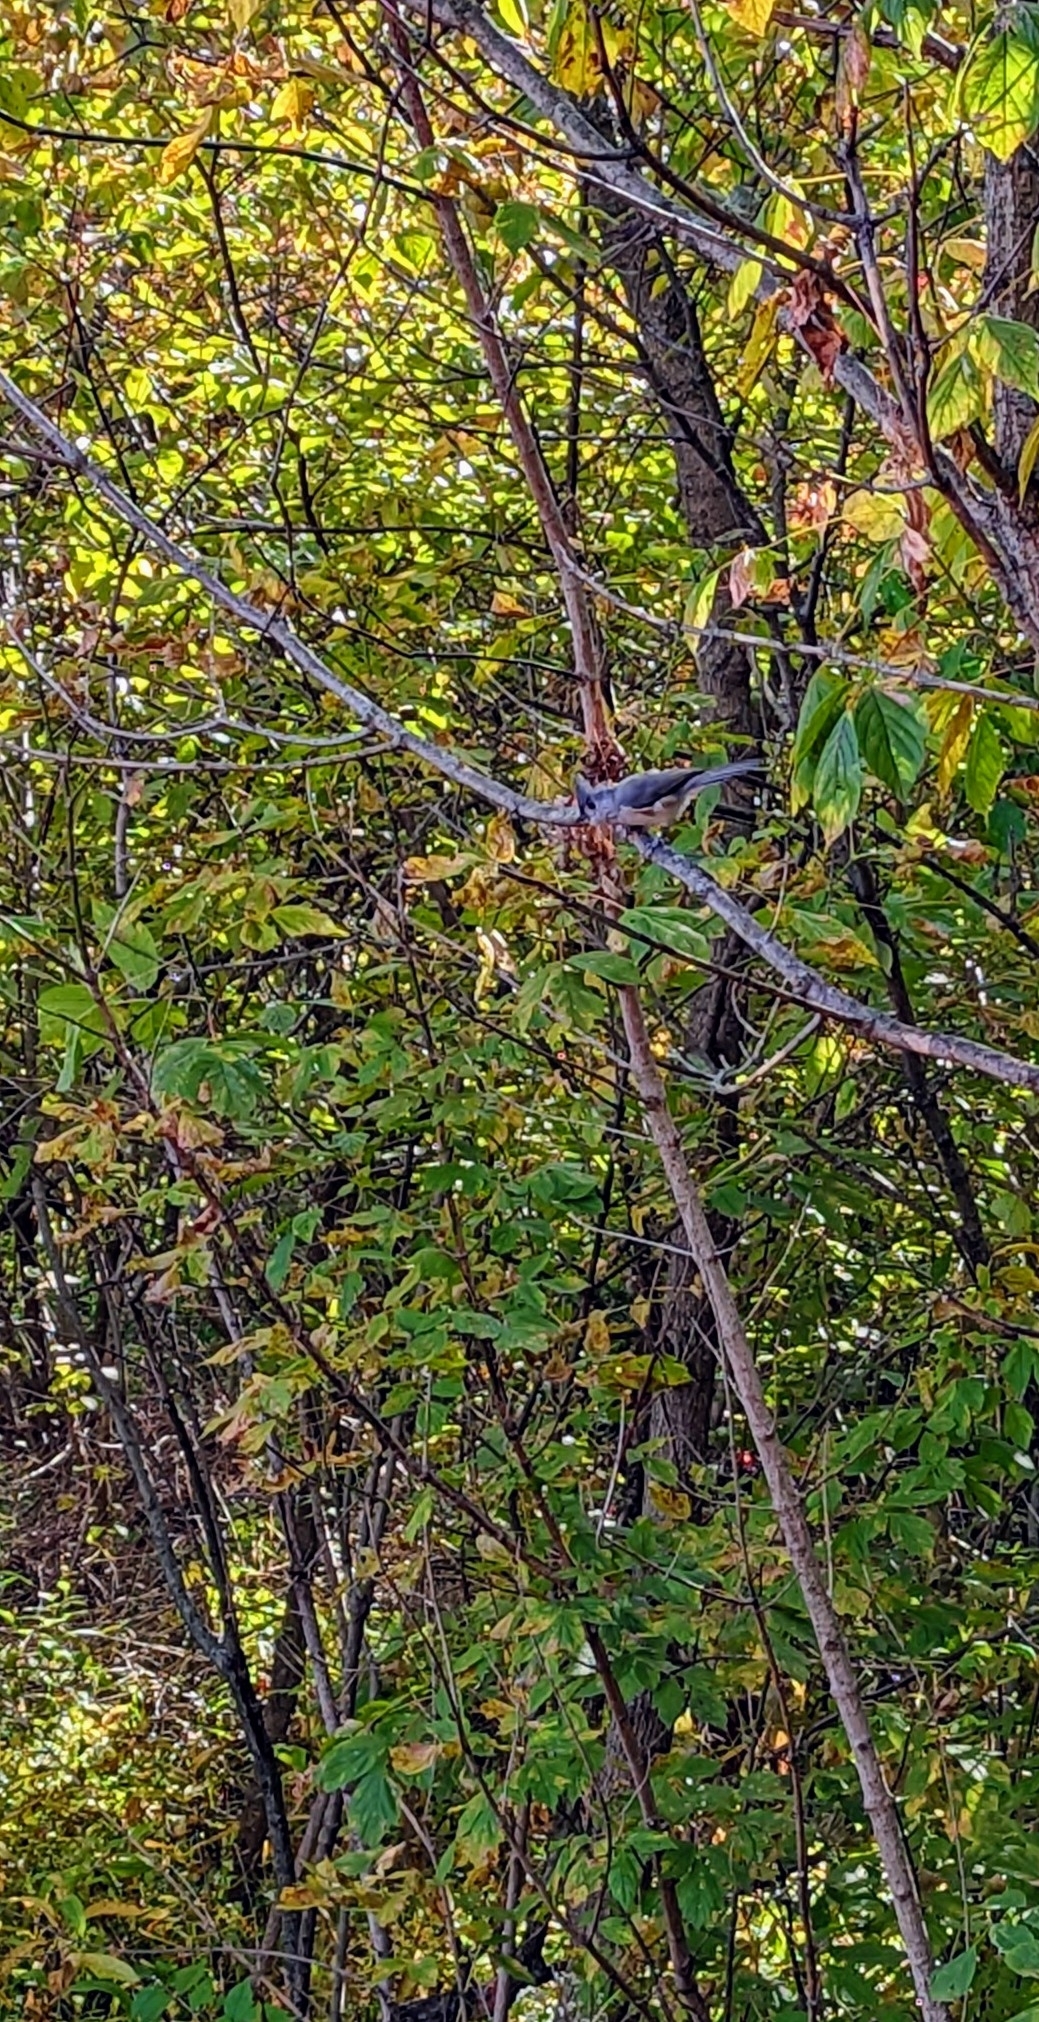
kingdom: Animalia
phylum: Chordata
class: Aves
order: Passeriformes
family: Paridae
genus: Baeolophus
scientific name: Baeolophus bicolor
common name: Tufted titmouse
